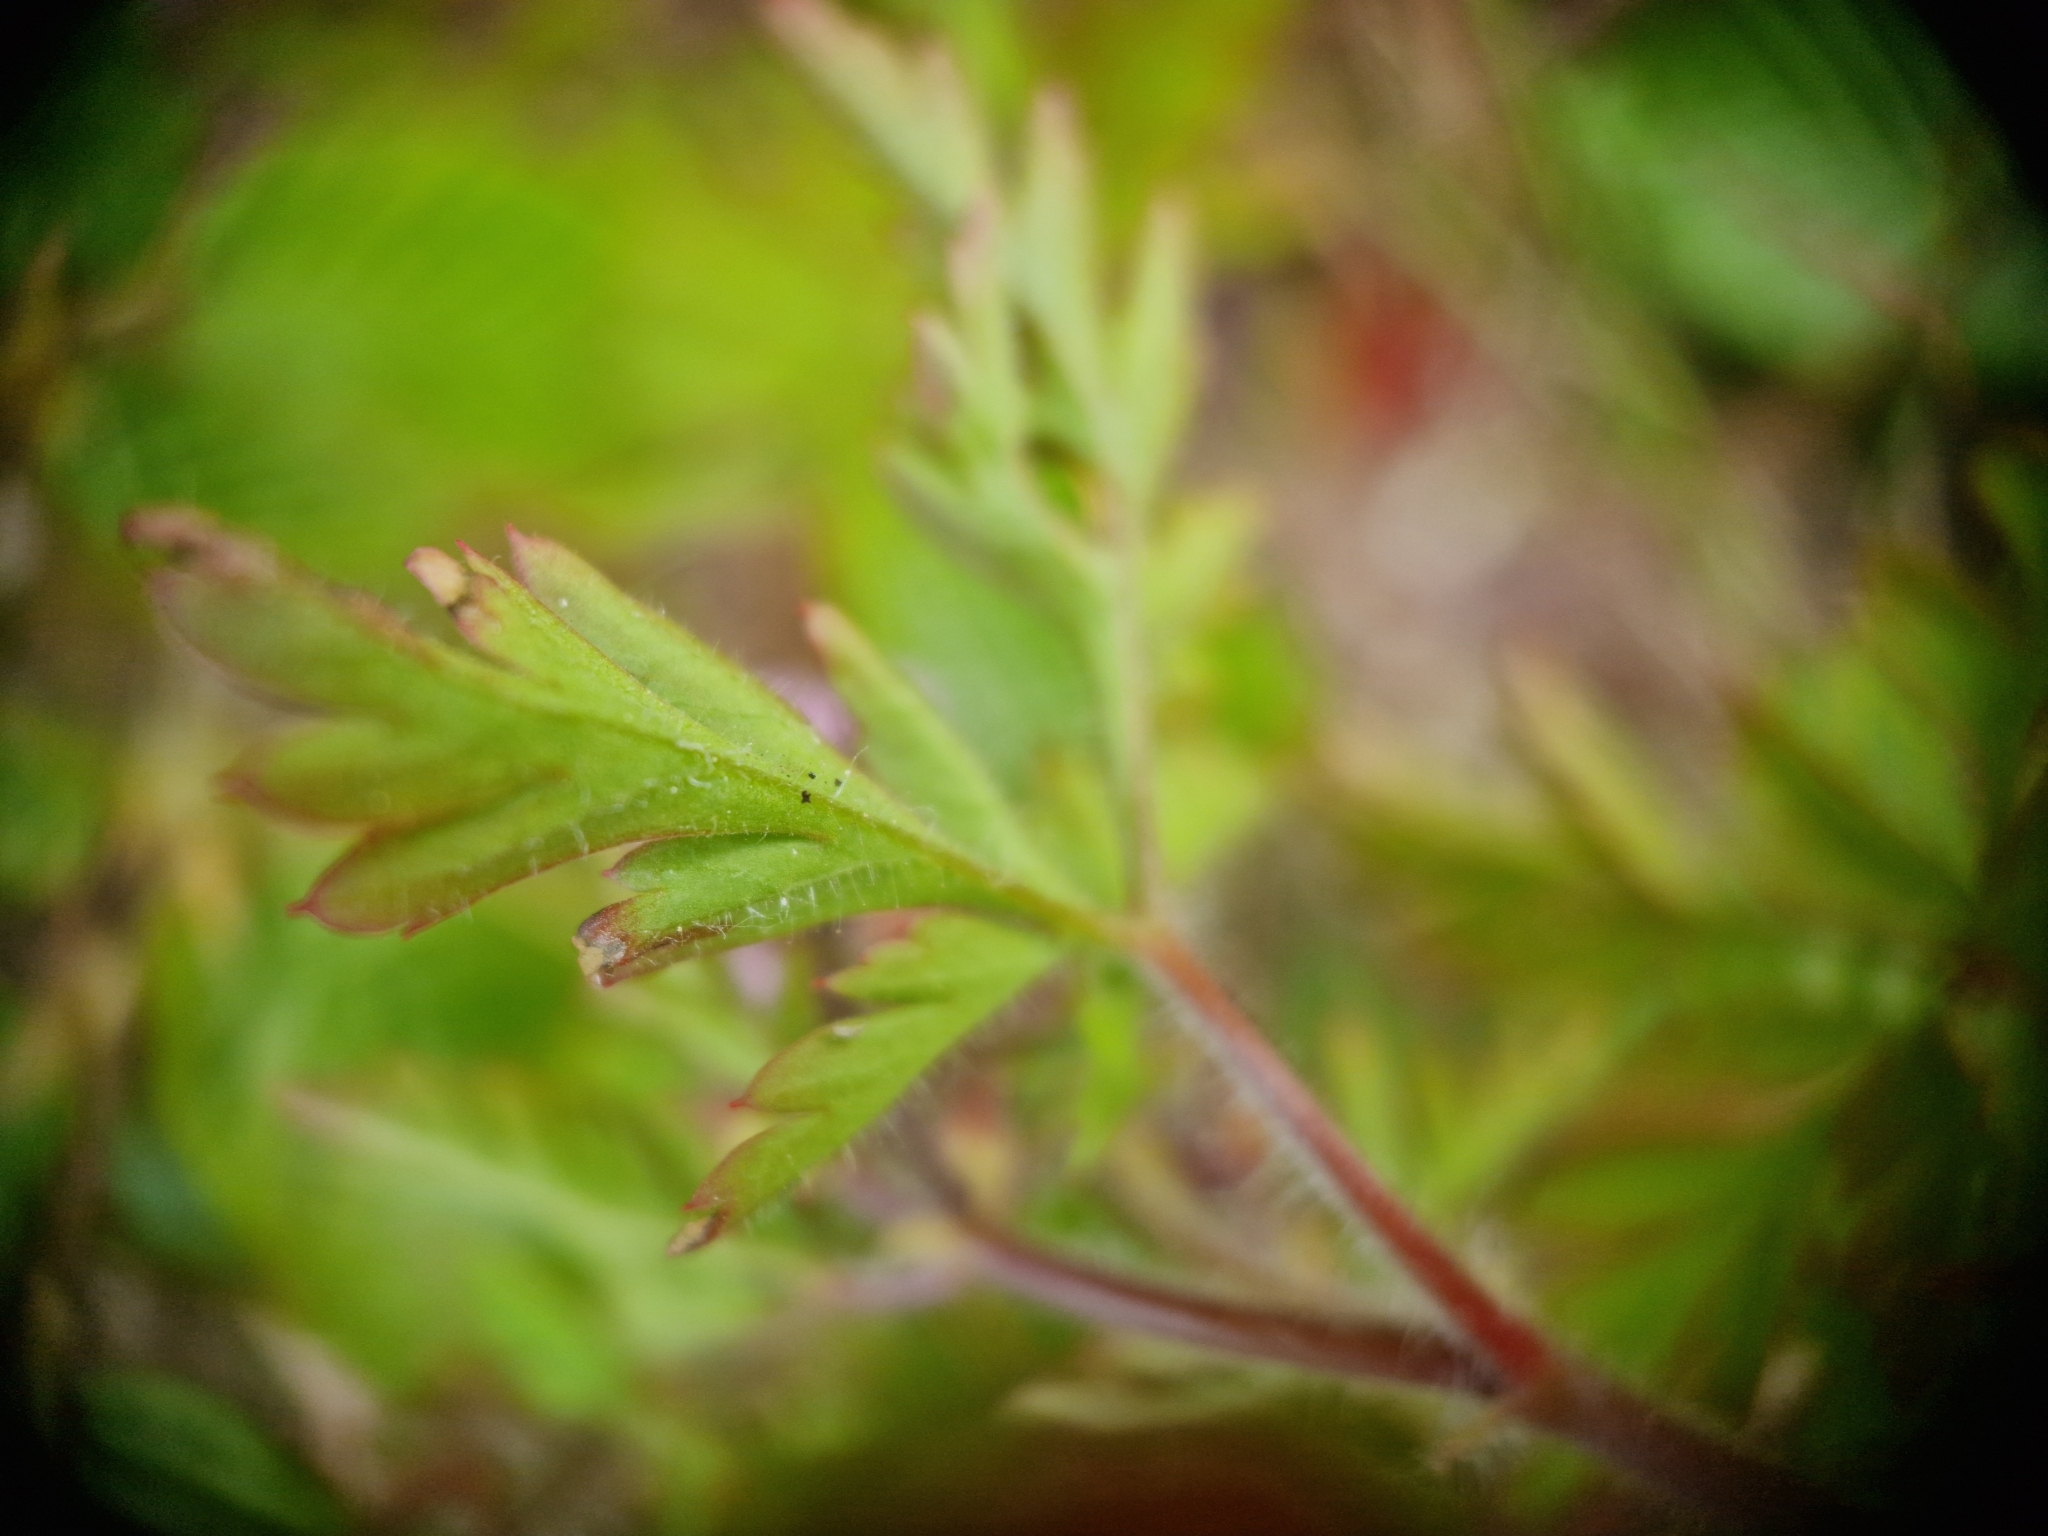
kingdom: Plantae
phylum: Tracheophyta
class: Magnoliopsida
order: Geraniales
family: Geraniaceae
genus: Geranium
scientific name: Geranium robertianum
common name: Herb-robert
